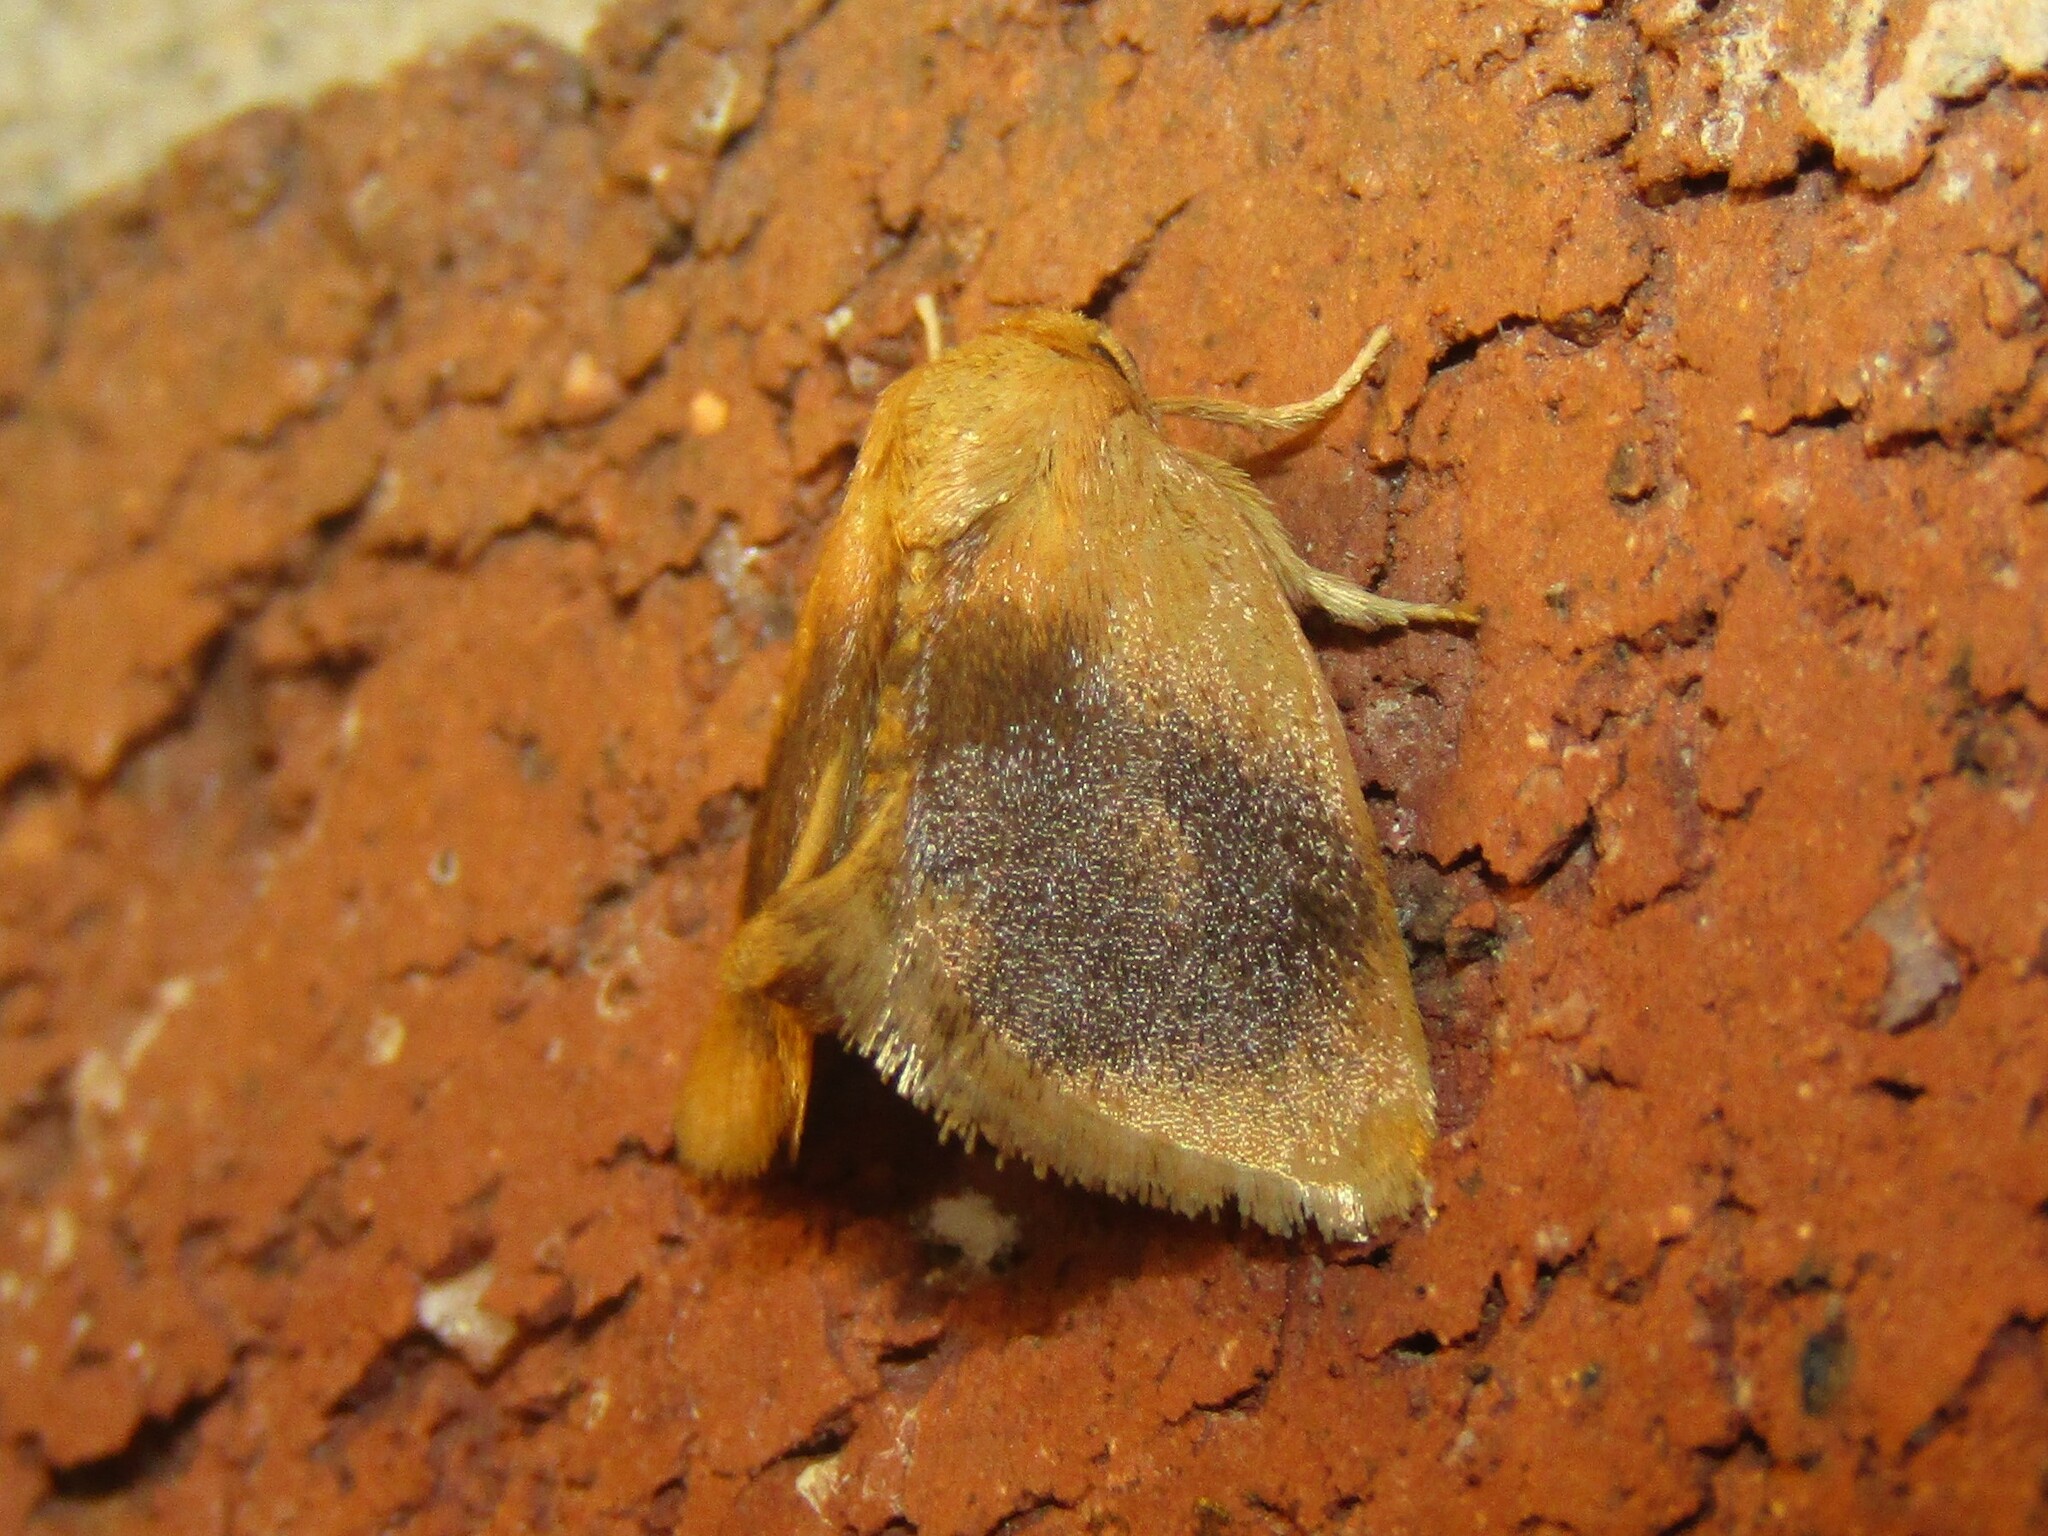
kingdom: Animalia
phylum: Arthropoda
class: Insecta
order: Lepidoptera
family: Limacodidae
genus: Tortricidia
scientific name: Tortricidia flexuosa
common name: Abbreviated button slug moth
